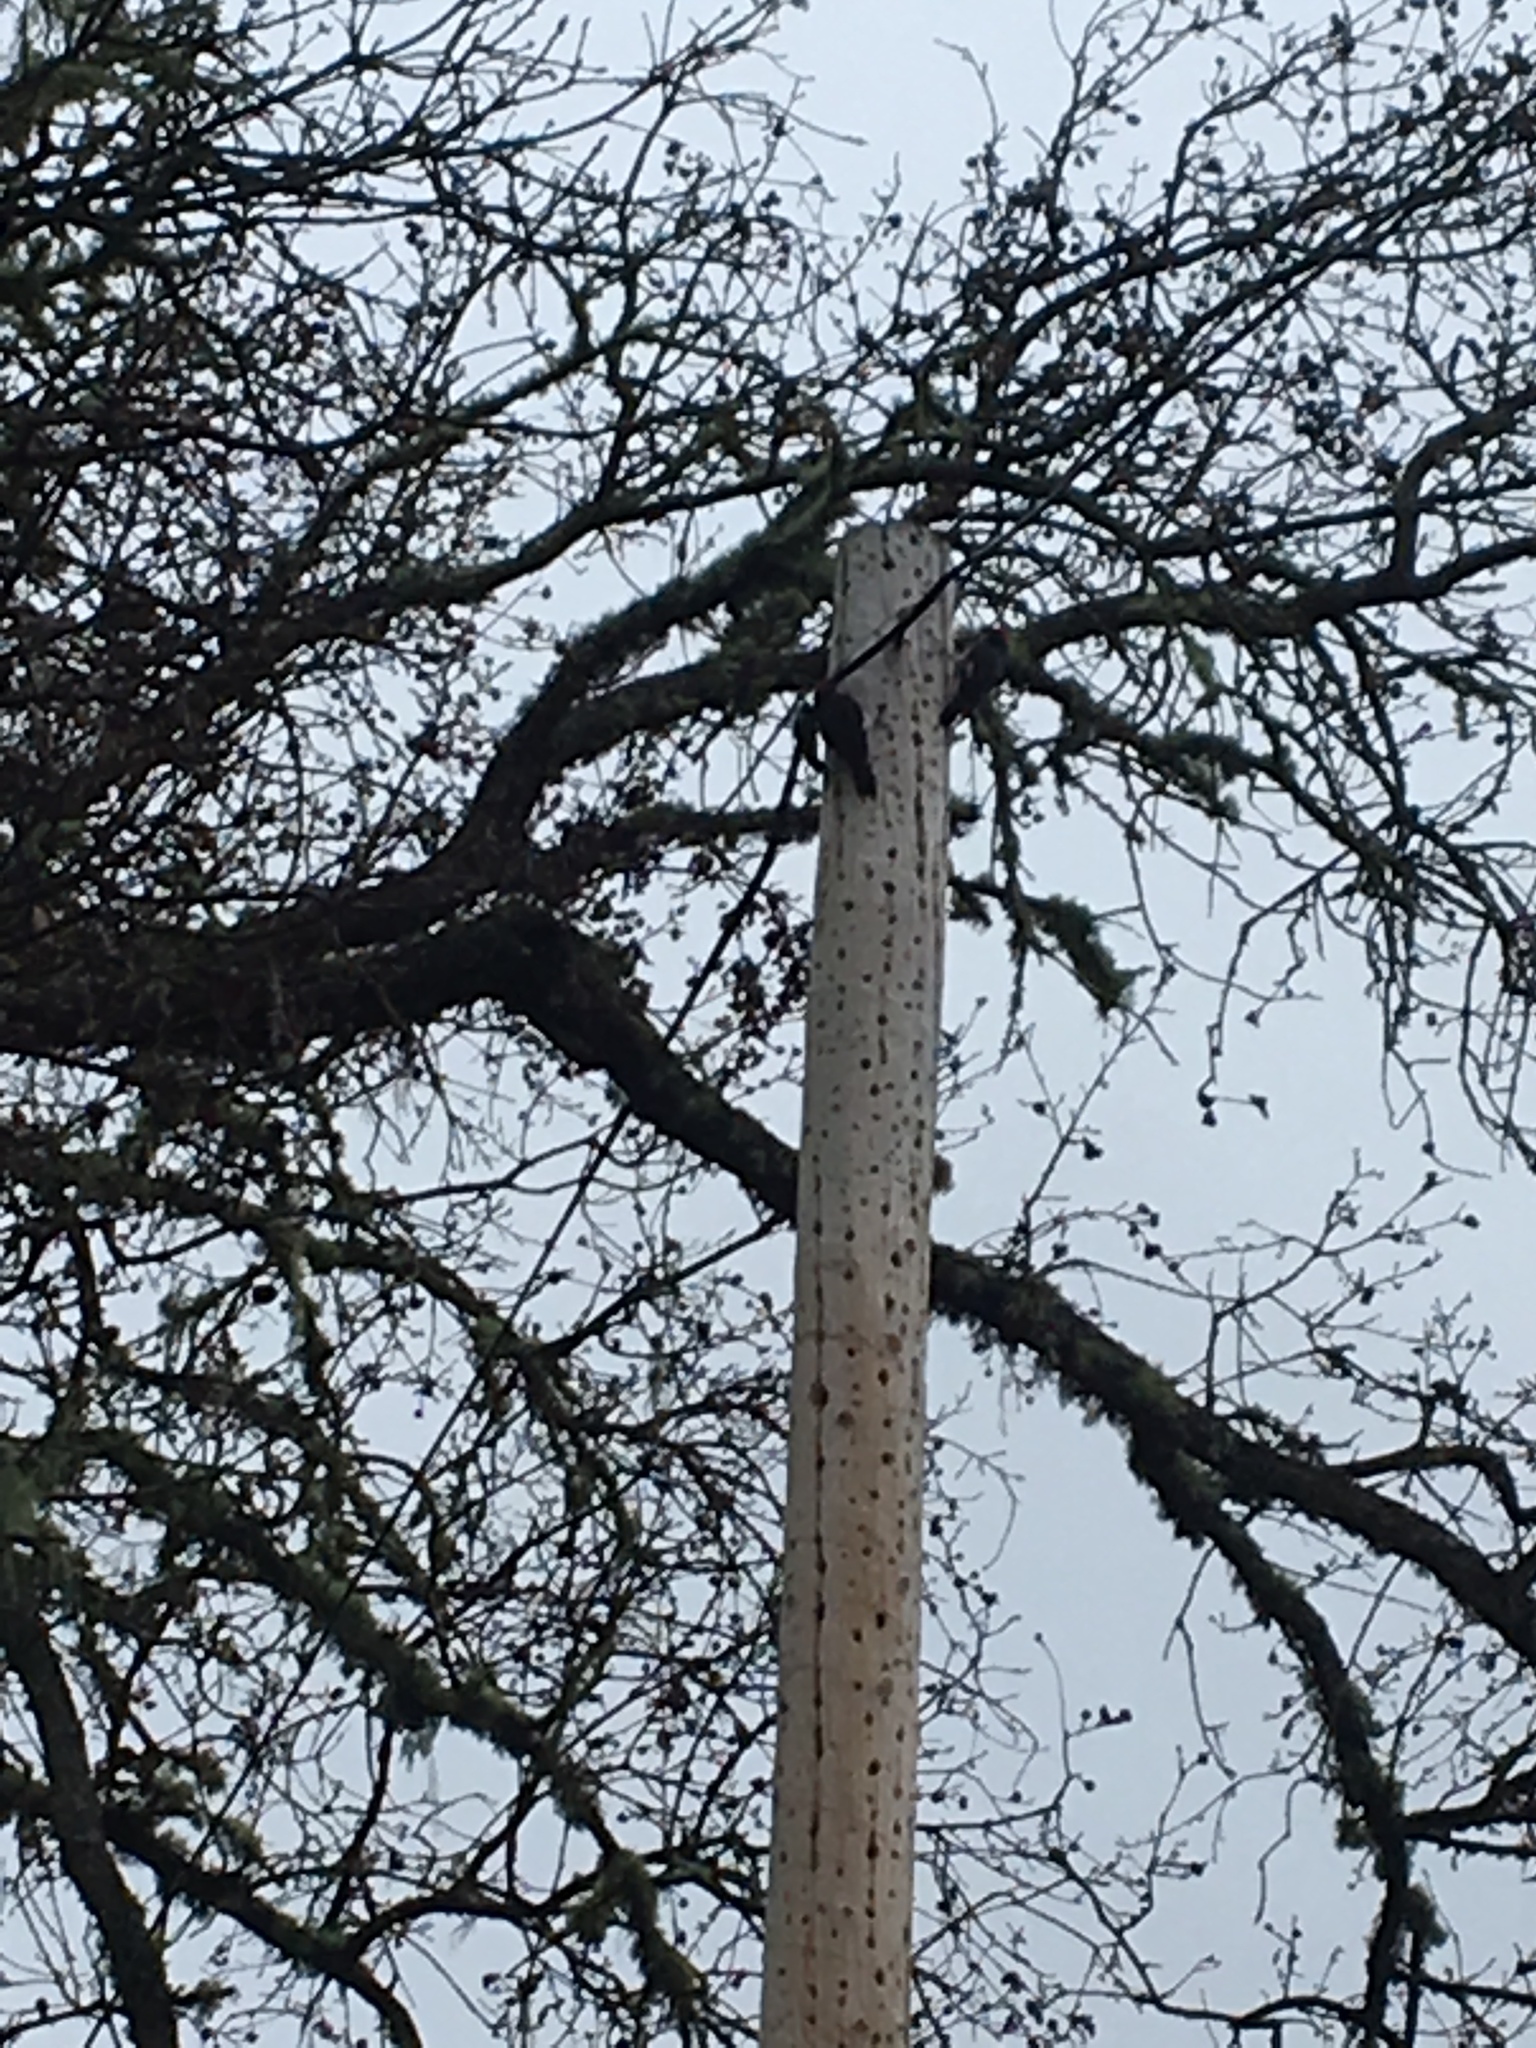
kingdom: Animalia
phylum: Chordata
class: Aves
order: Piciformes
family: Picidae
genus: Melanerpes
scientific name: Melanerpes formicivorus
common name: Acorn woodpecker
